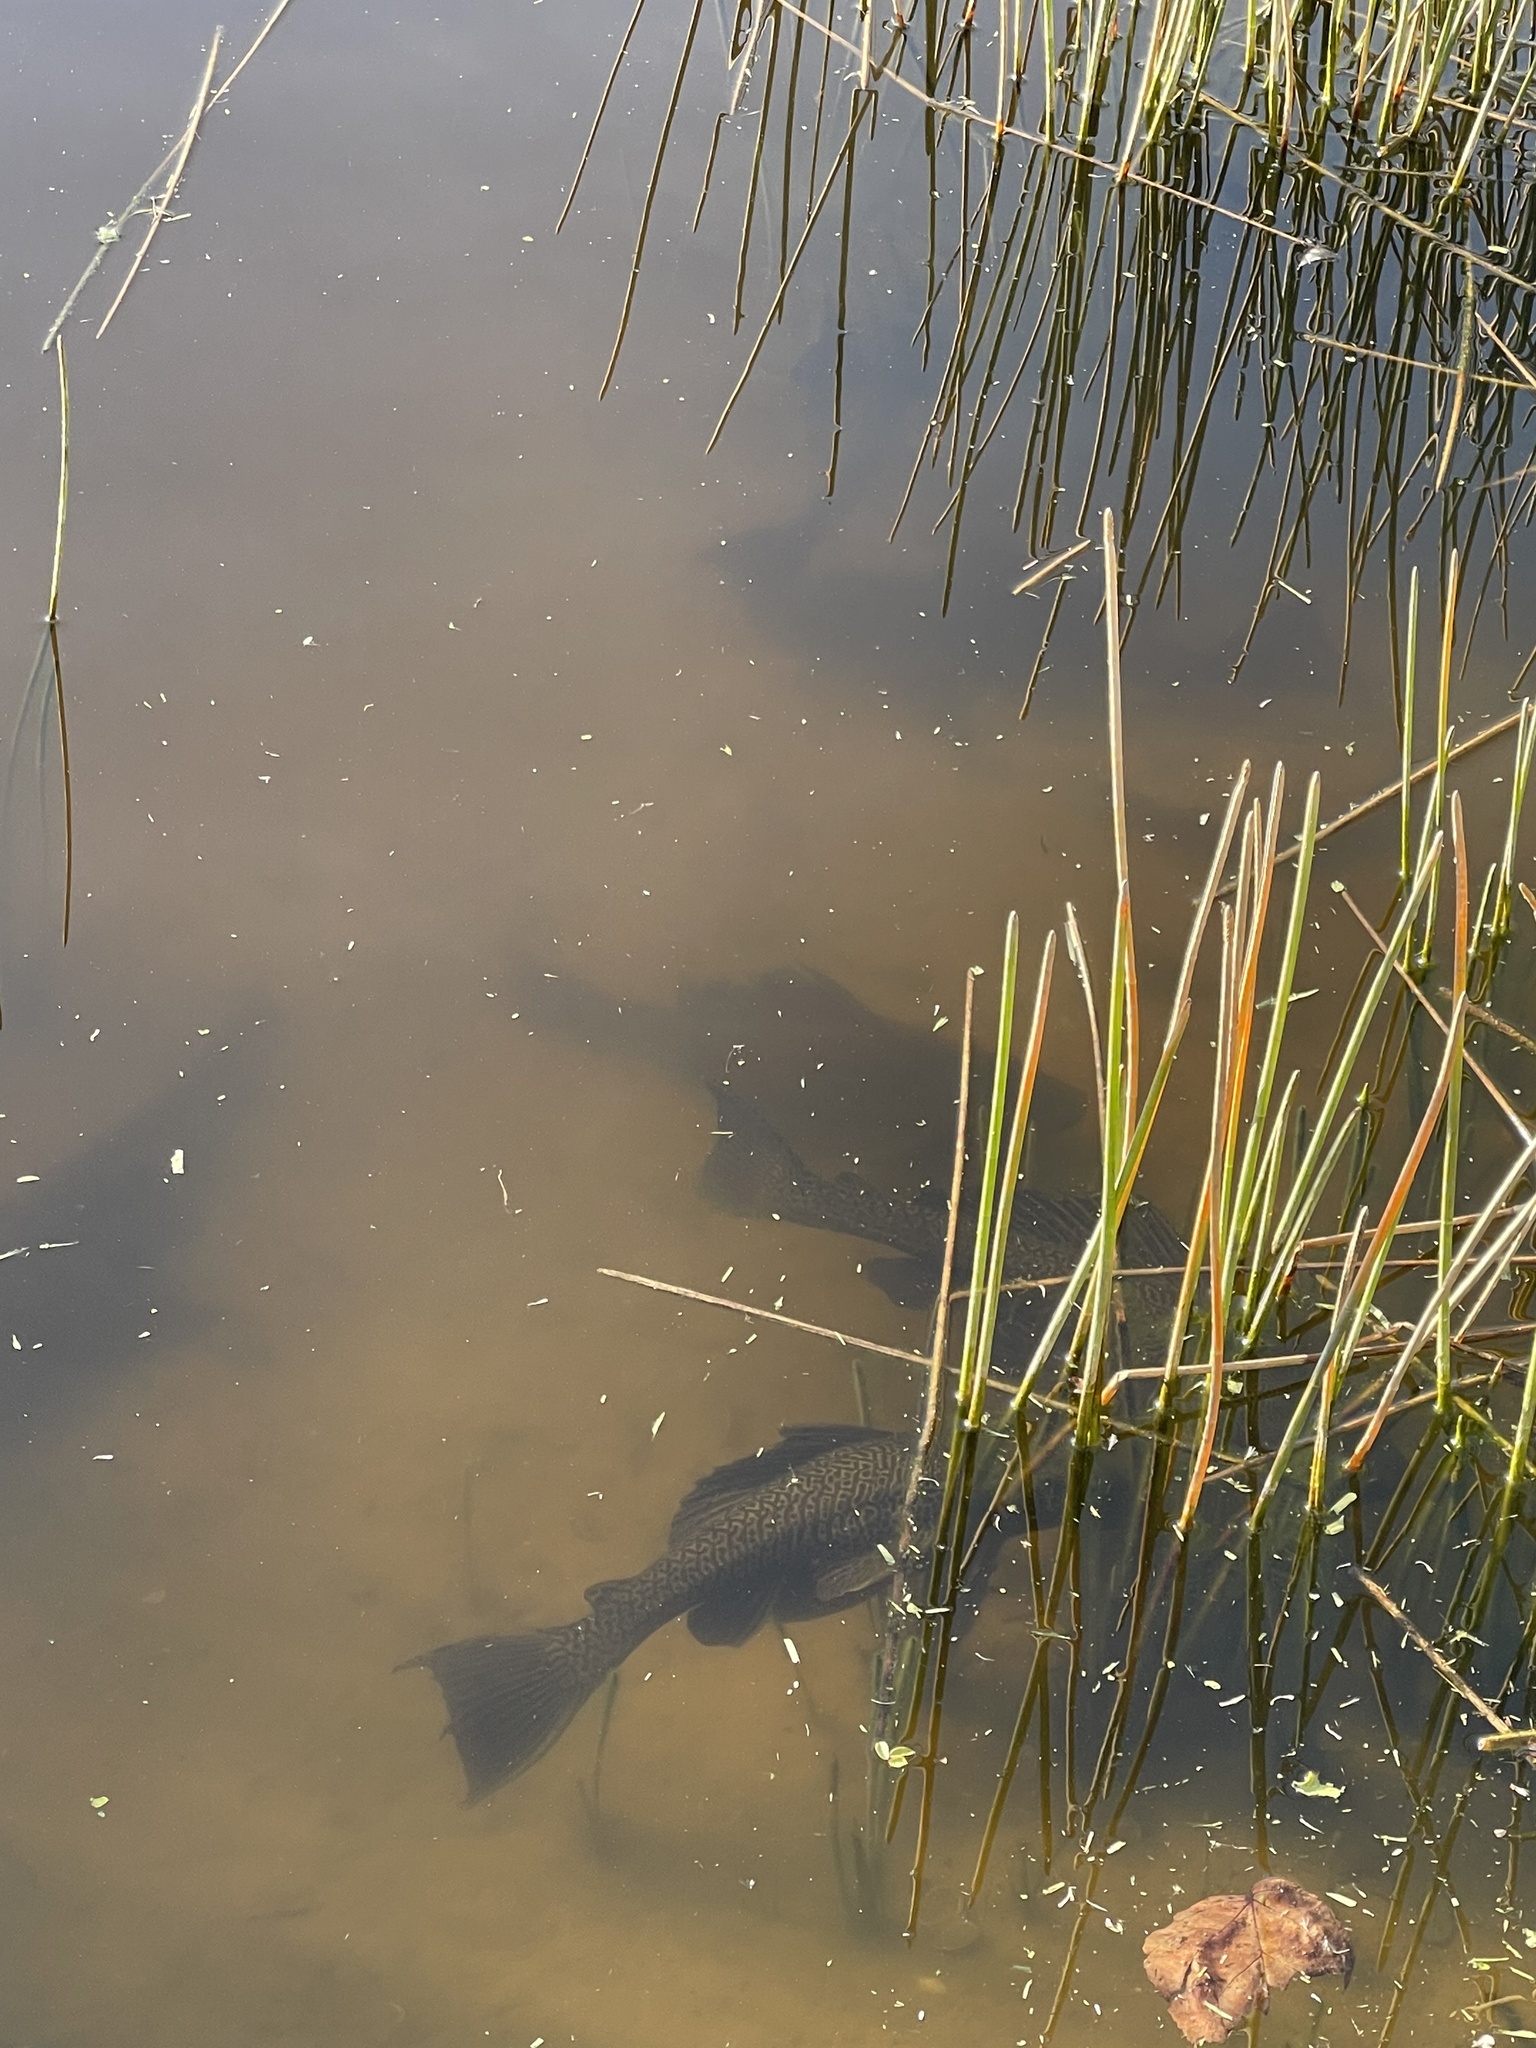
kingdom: Animalia
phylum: Chordata
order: Siluriformes
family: Loricariidae
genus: Pterygoplichthys
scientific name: Pterygoplichthys
